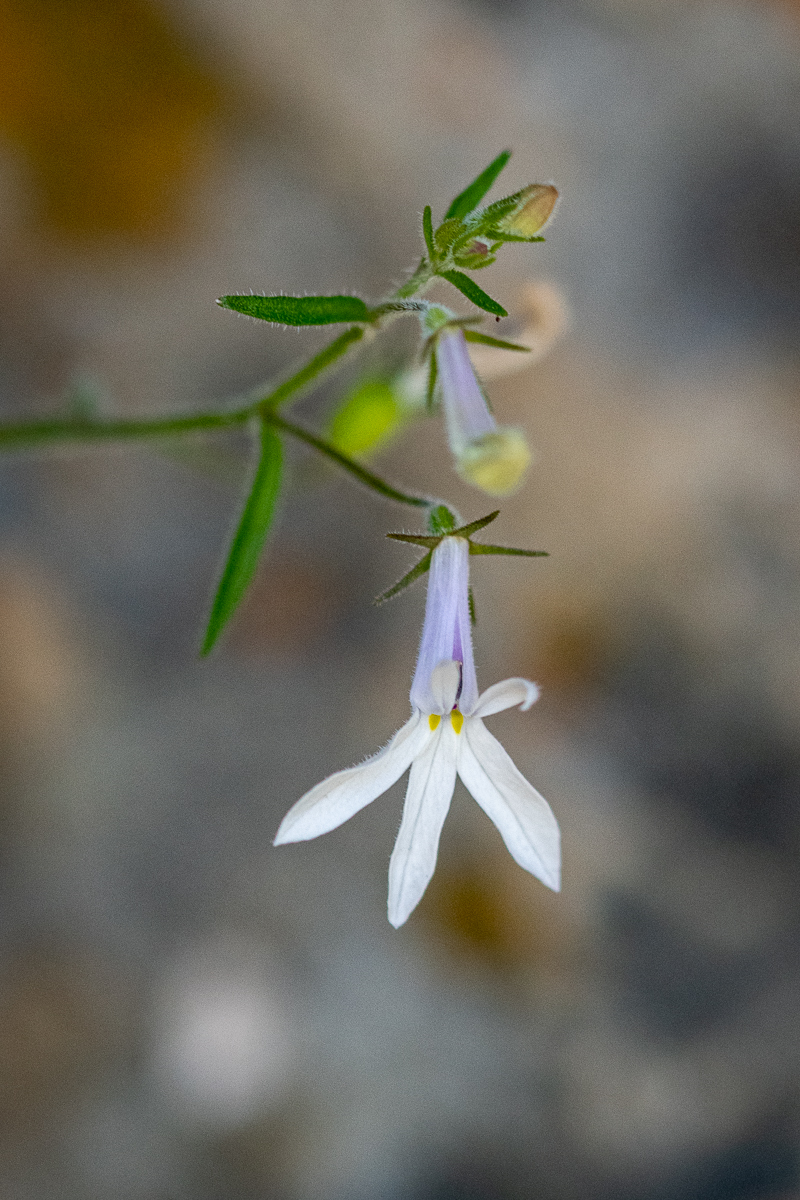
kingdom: Plantae
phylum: Tracheophyta
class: Magnoliopsida
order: Asterales
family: Campanulaceae
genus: Lobelia
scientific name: Lobelia pubescens
